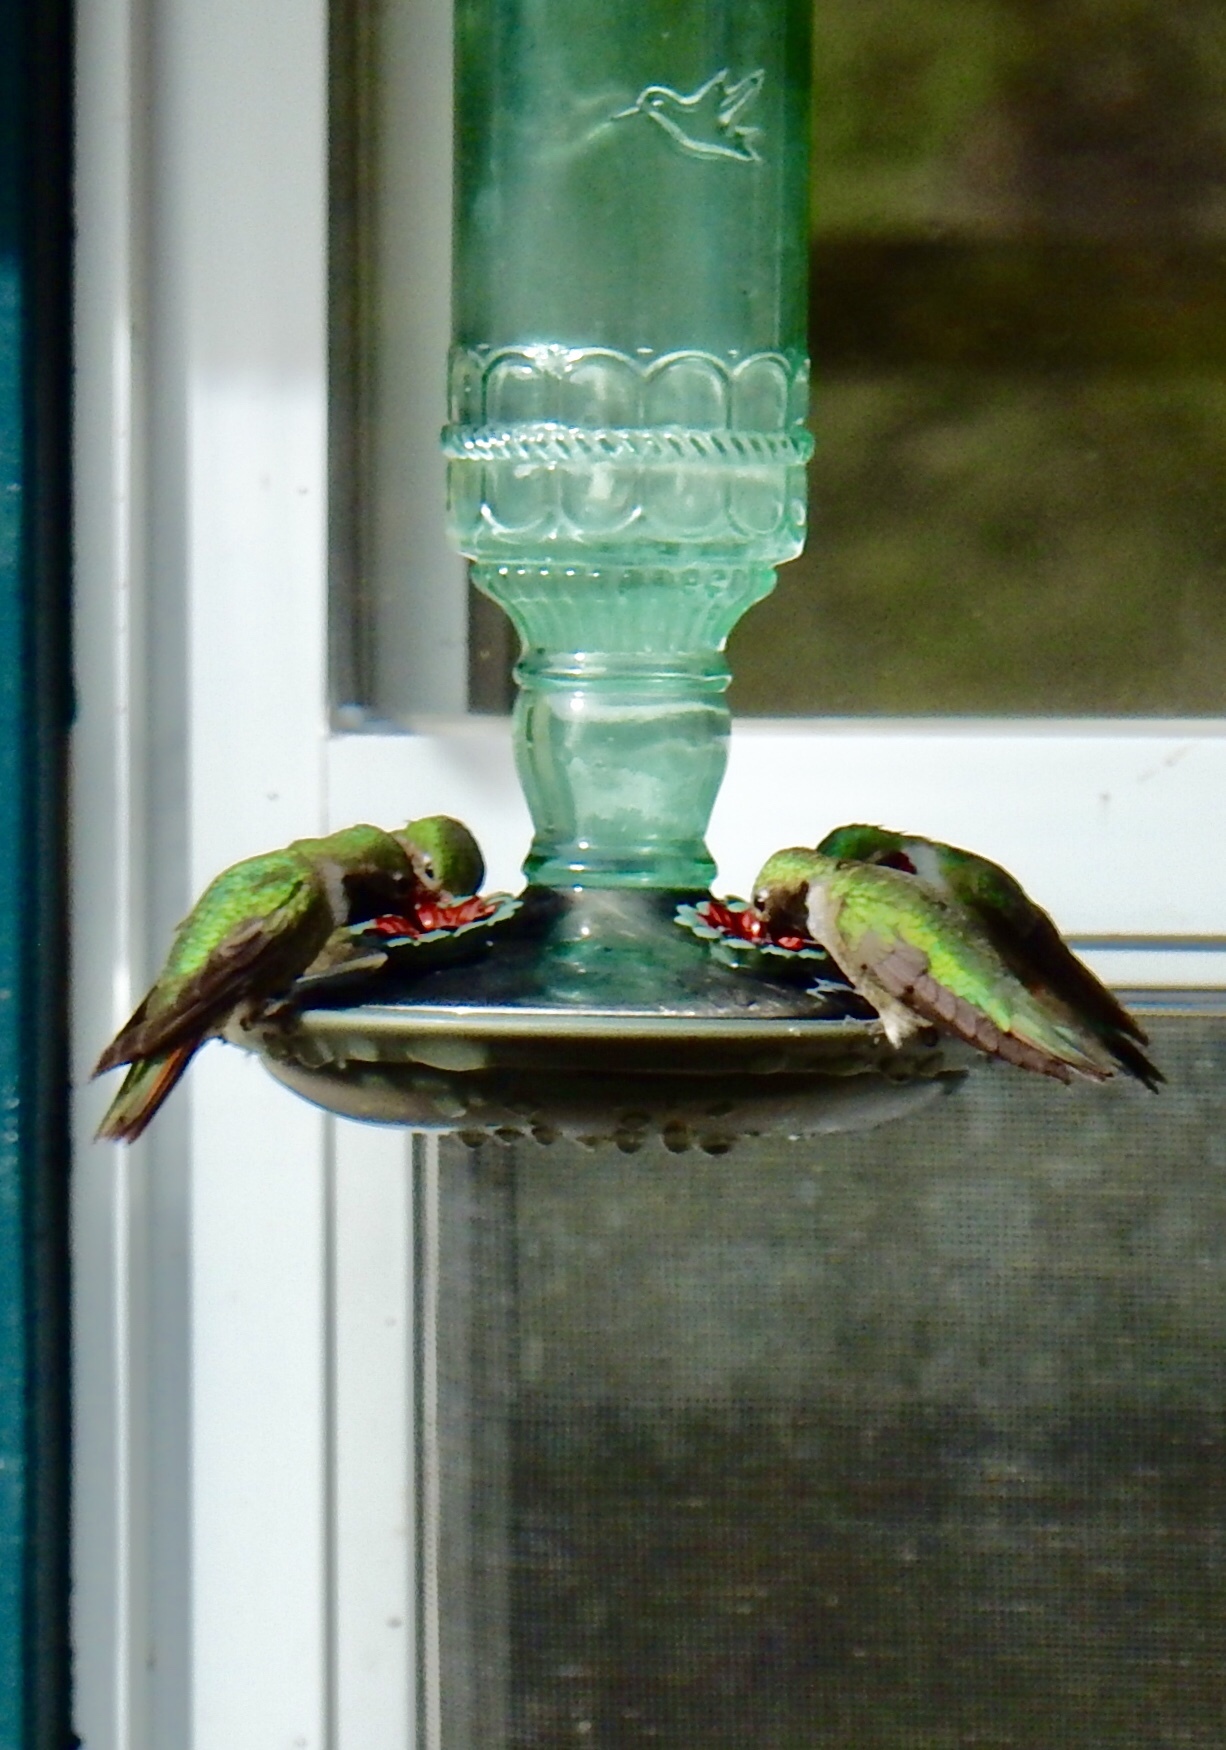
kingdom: Animalia
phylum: Chordata
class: Aves
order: Apodiformes
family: Trochilidae
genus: Selasphorus
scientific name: Selasphorus platycercus
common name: Broad-tailed hummingbird
